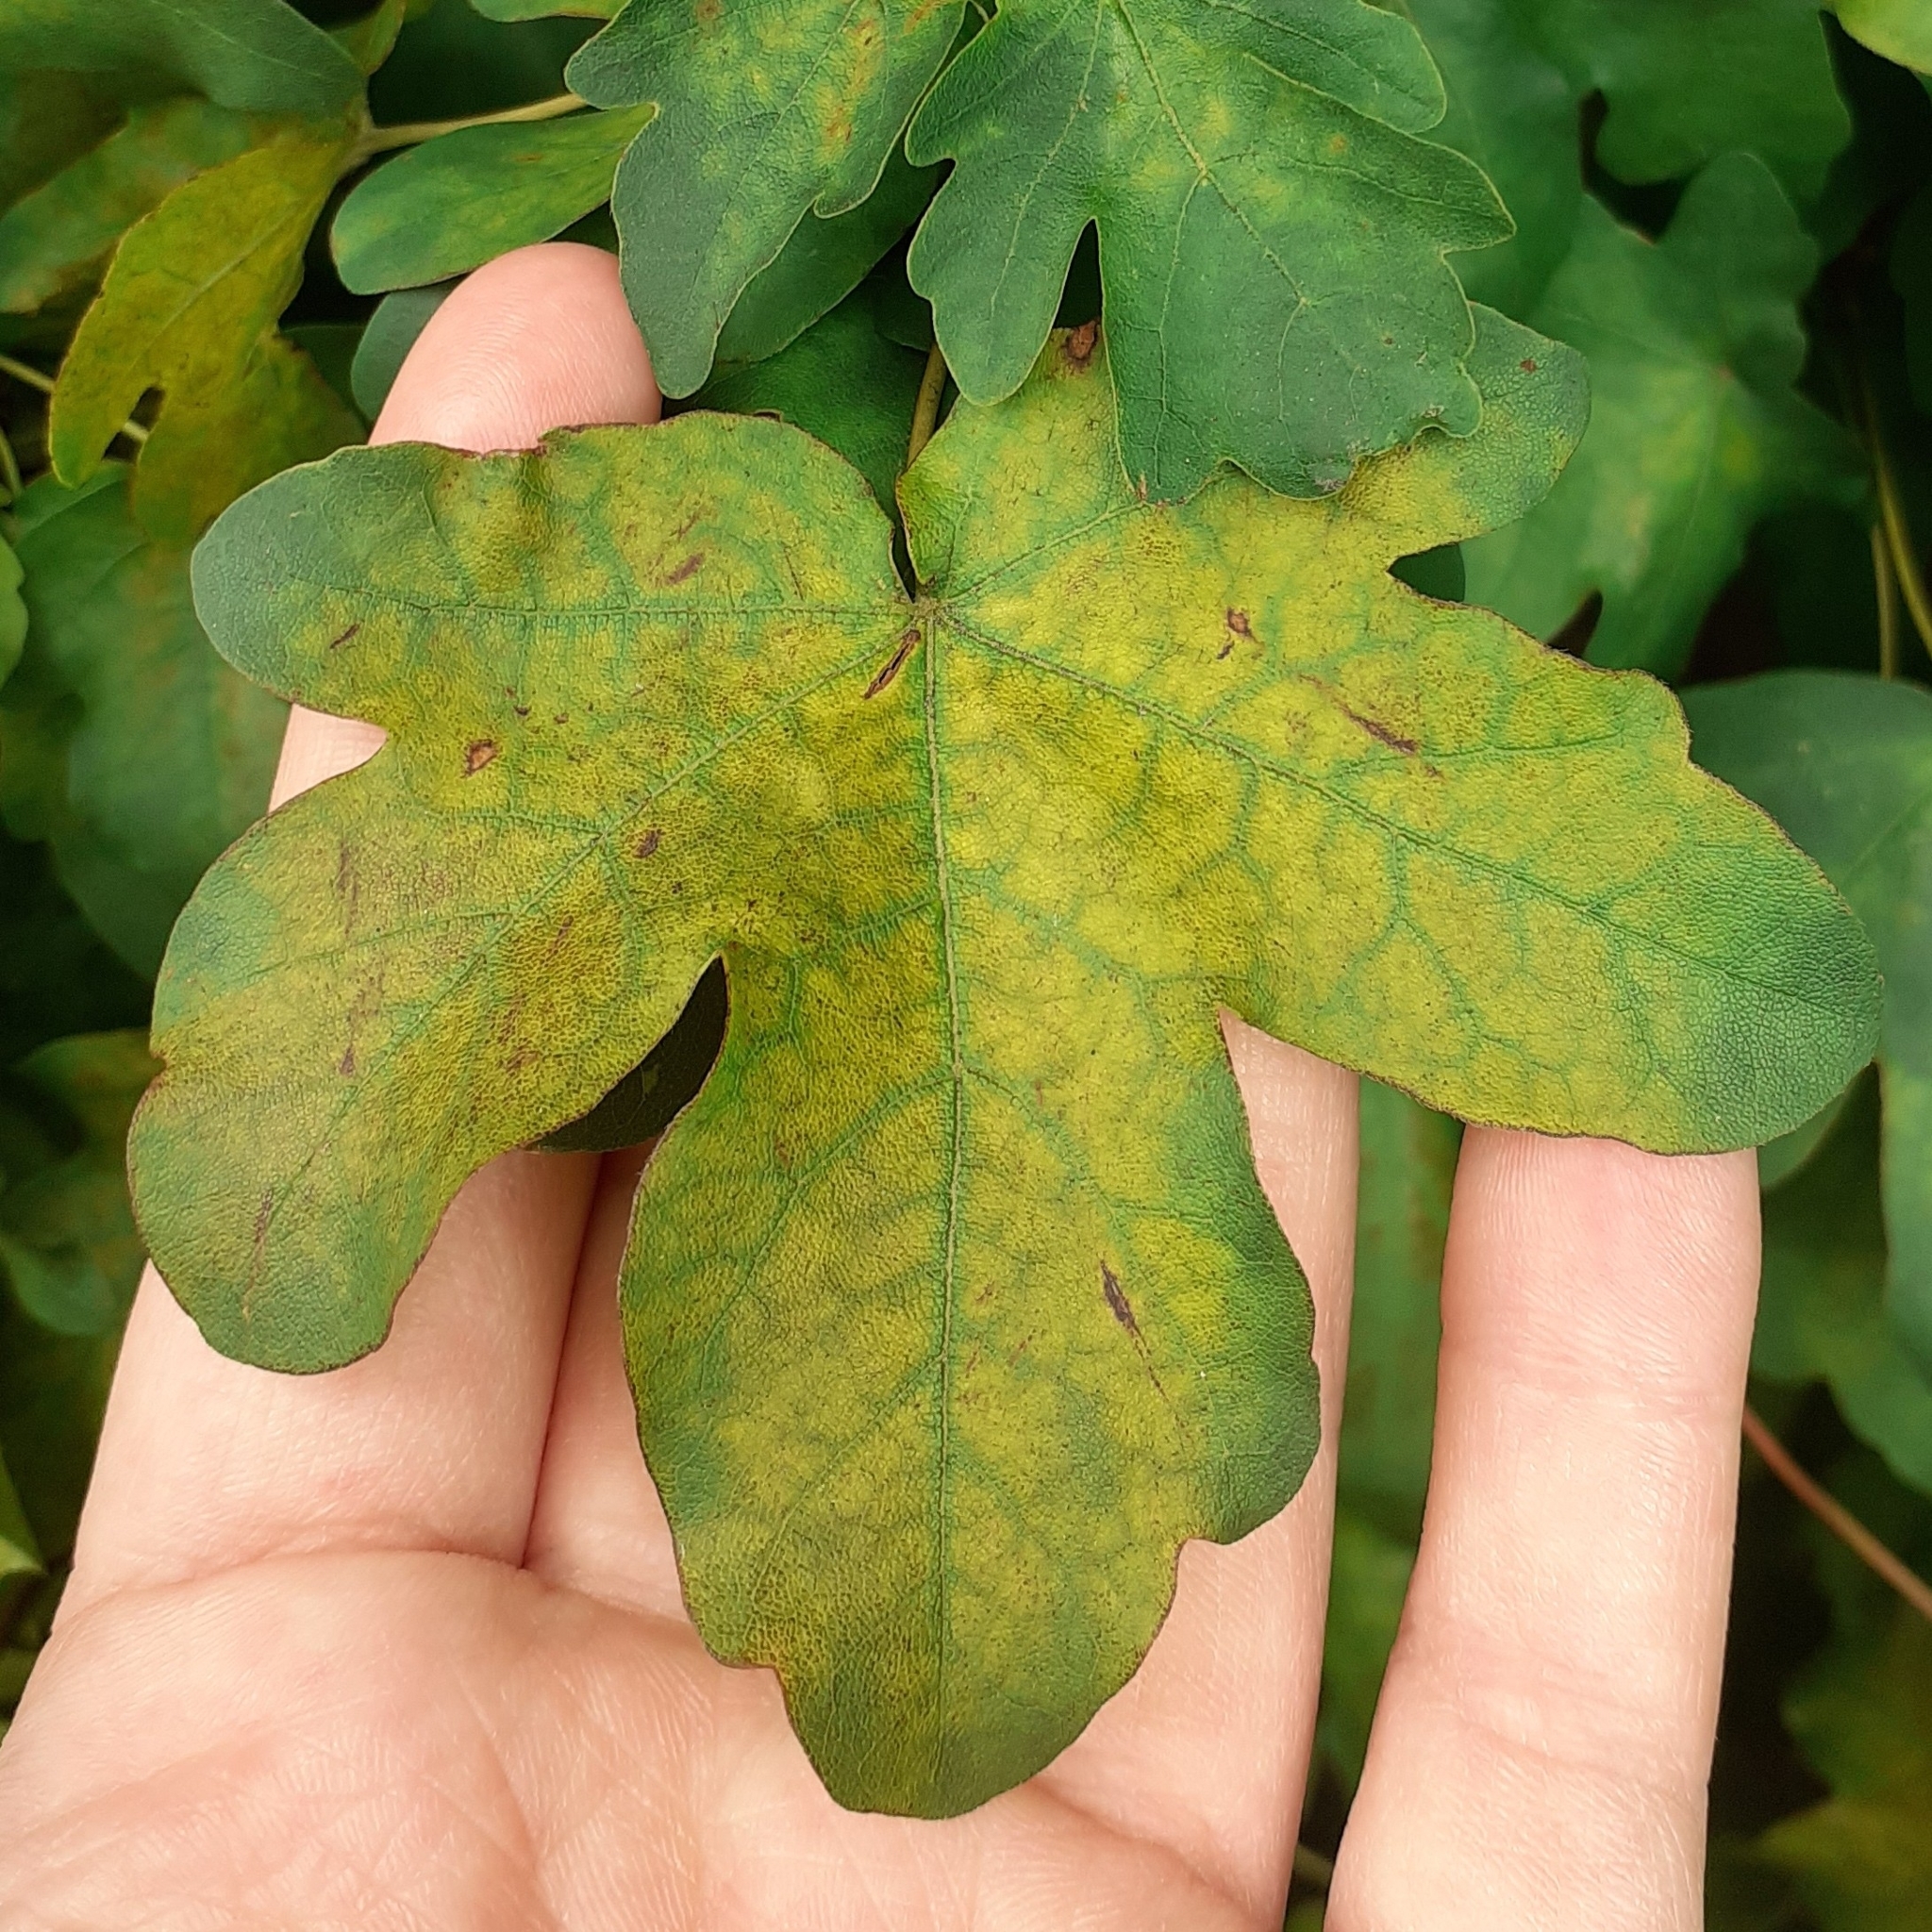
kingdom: Plantae
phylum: Tracheophyta
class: Magnoliopsida
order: Sapindales
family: Sapindaceae
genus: Acer
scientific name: Acer campestre
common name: Field maple
